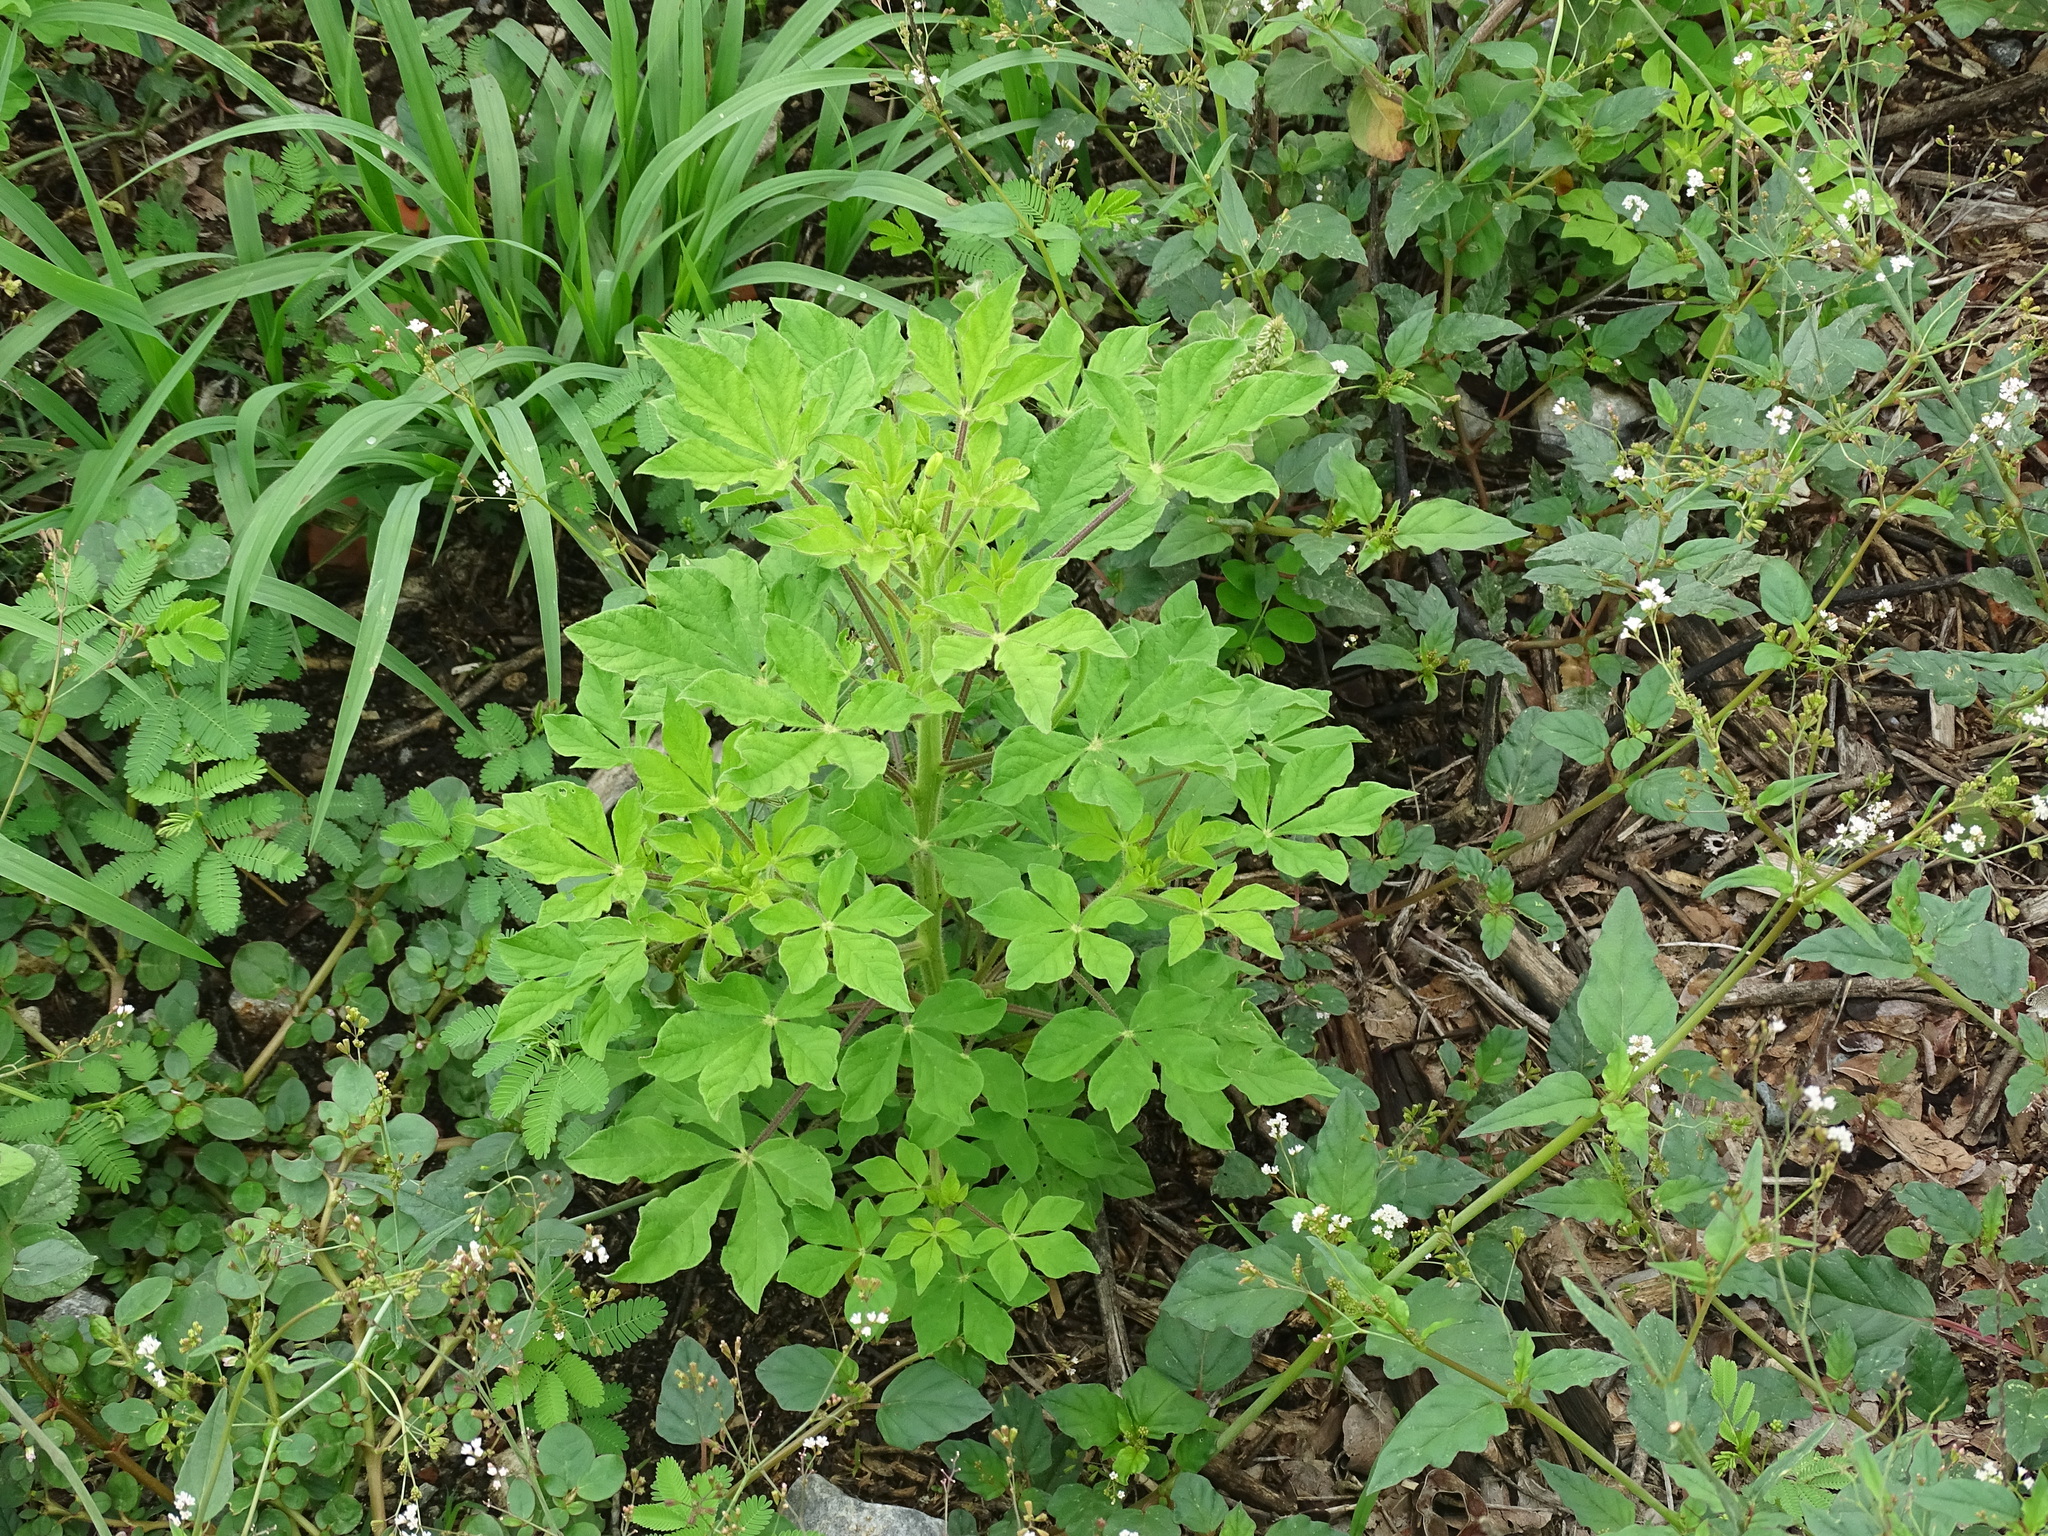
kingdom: Plantae
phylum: Tracheophyta
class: Magnoliopsida
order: Brassicales
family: Cleomaceae
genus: Arivela
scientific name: Arivela viscosa
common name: Asian spiderflower
